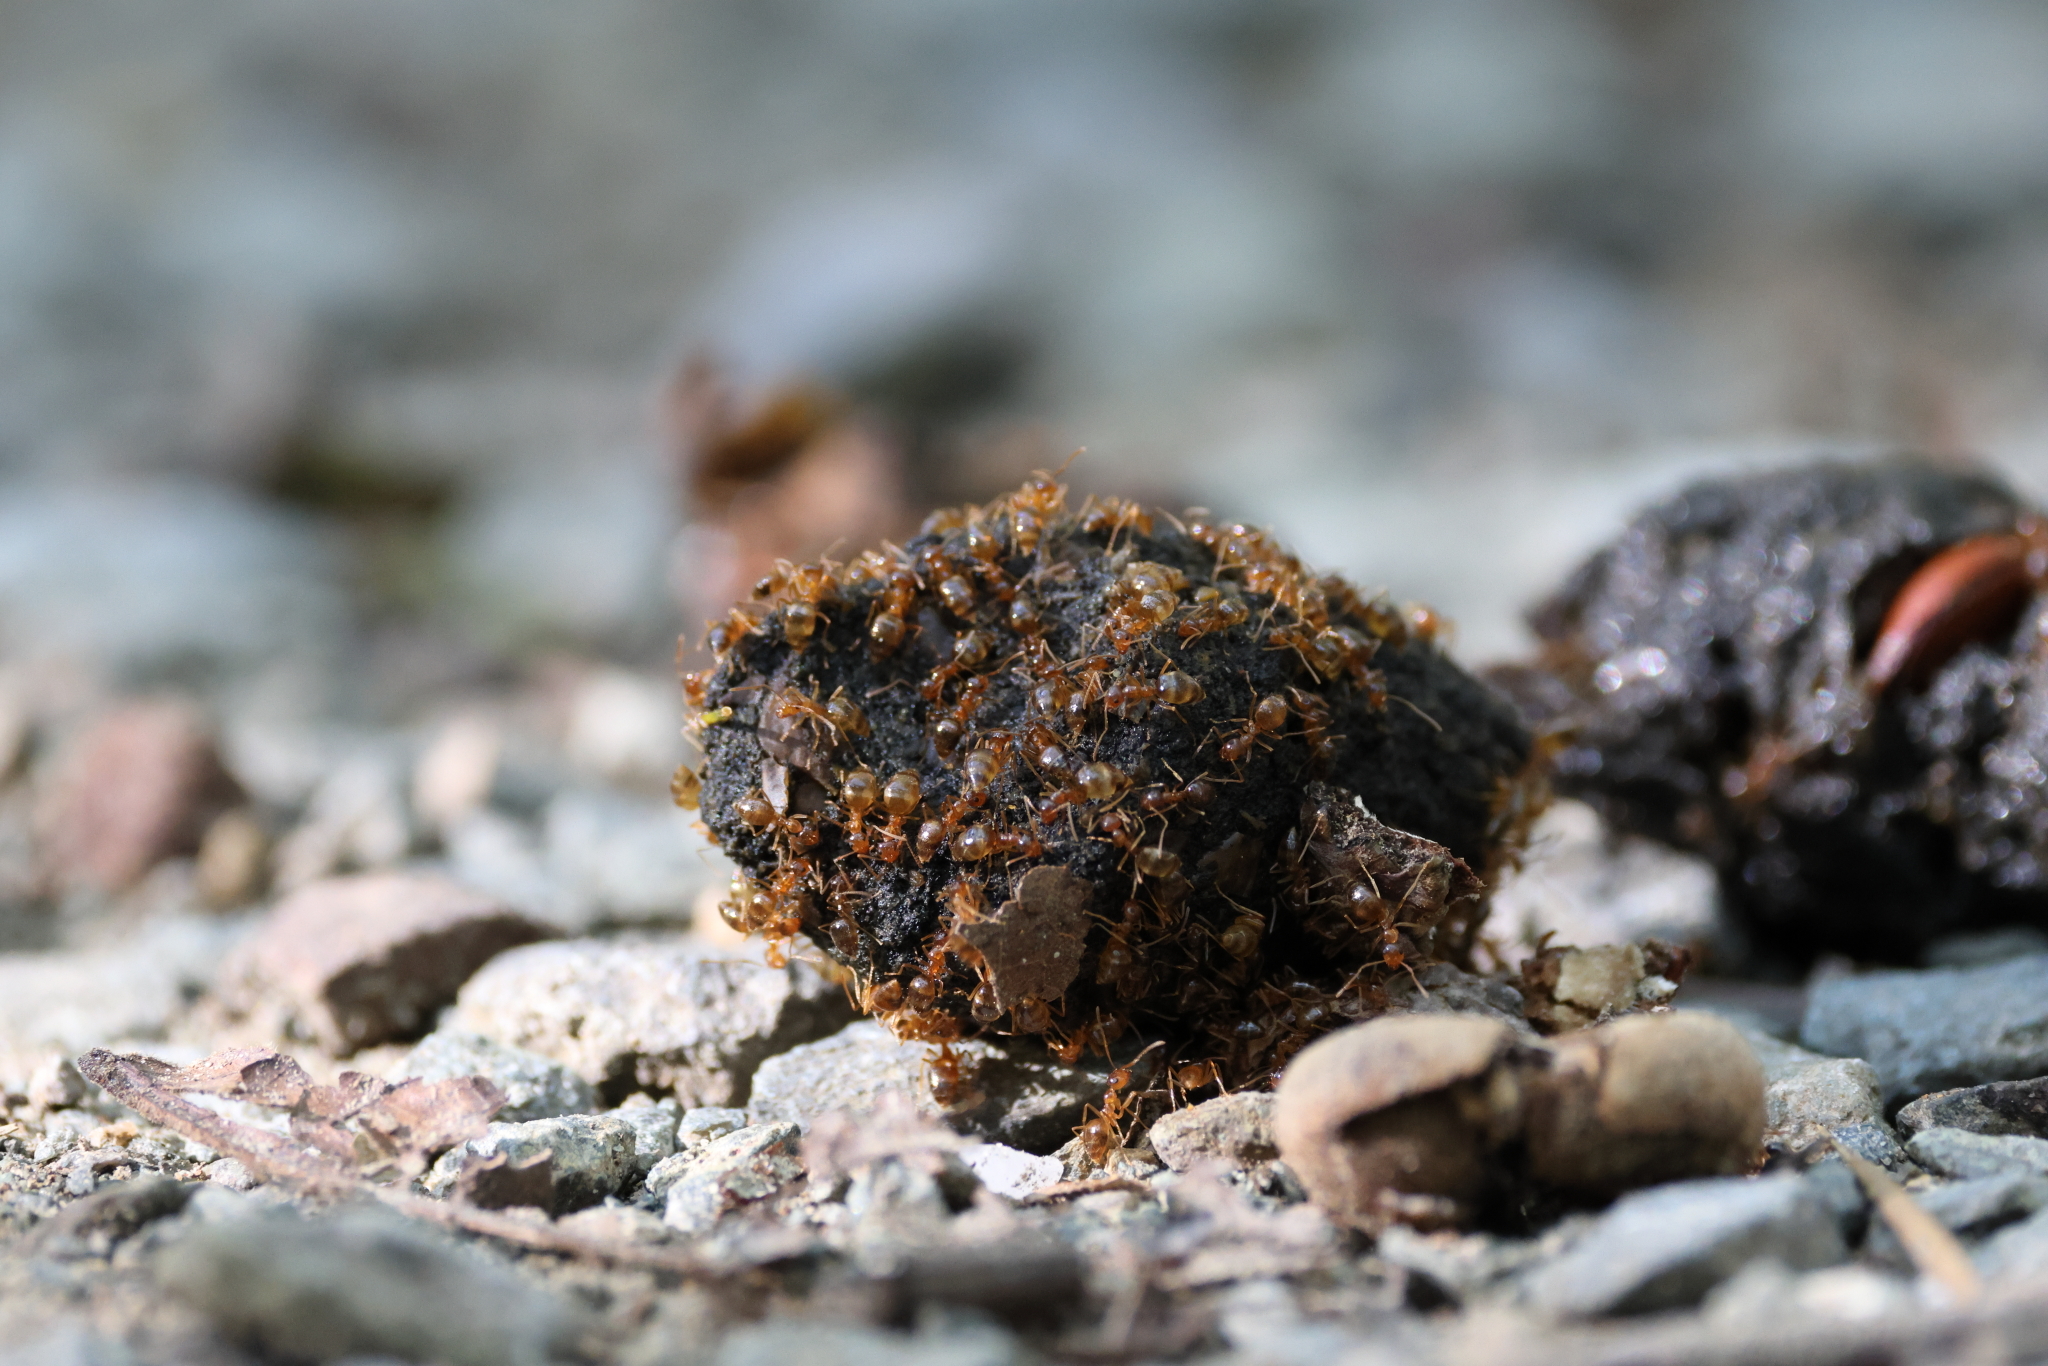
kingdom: Animalia
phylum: Arthropoda
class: Insecta
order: Hymenoptera
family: Formicidae
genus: Prenolepis
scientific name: Prenolepis imparis
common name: Small honey ant
